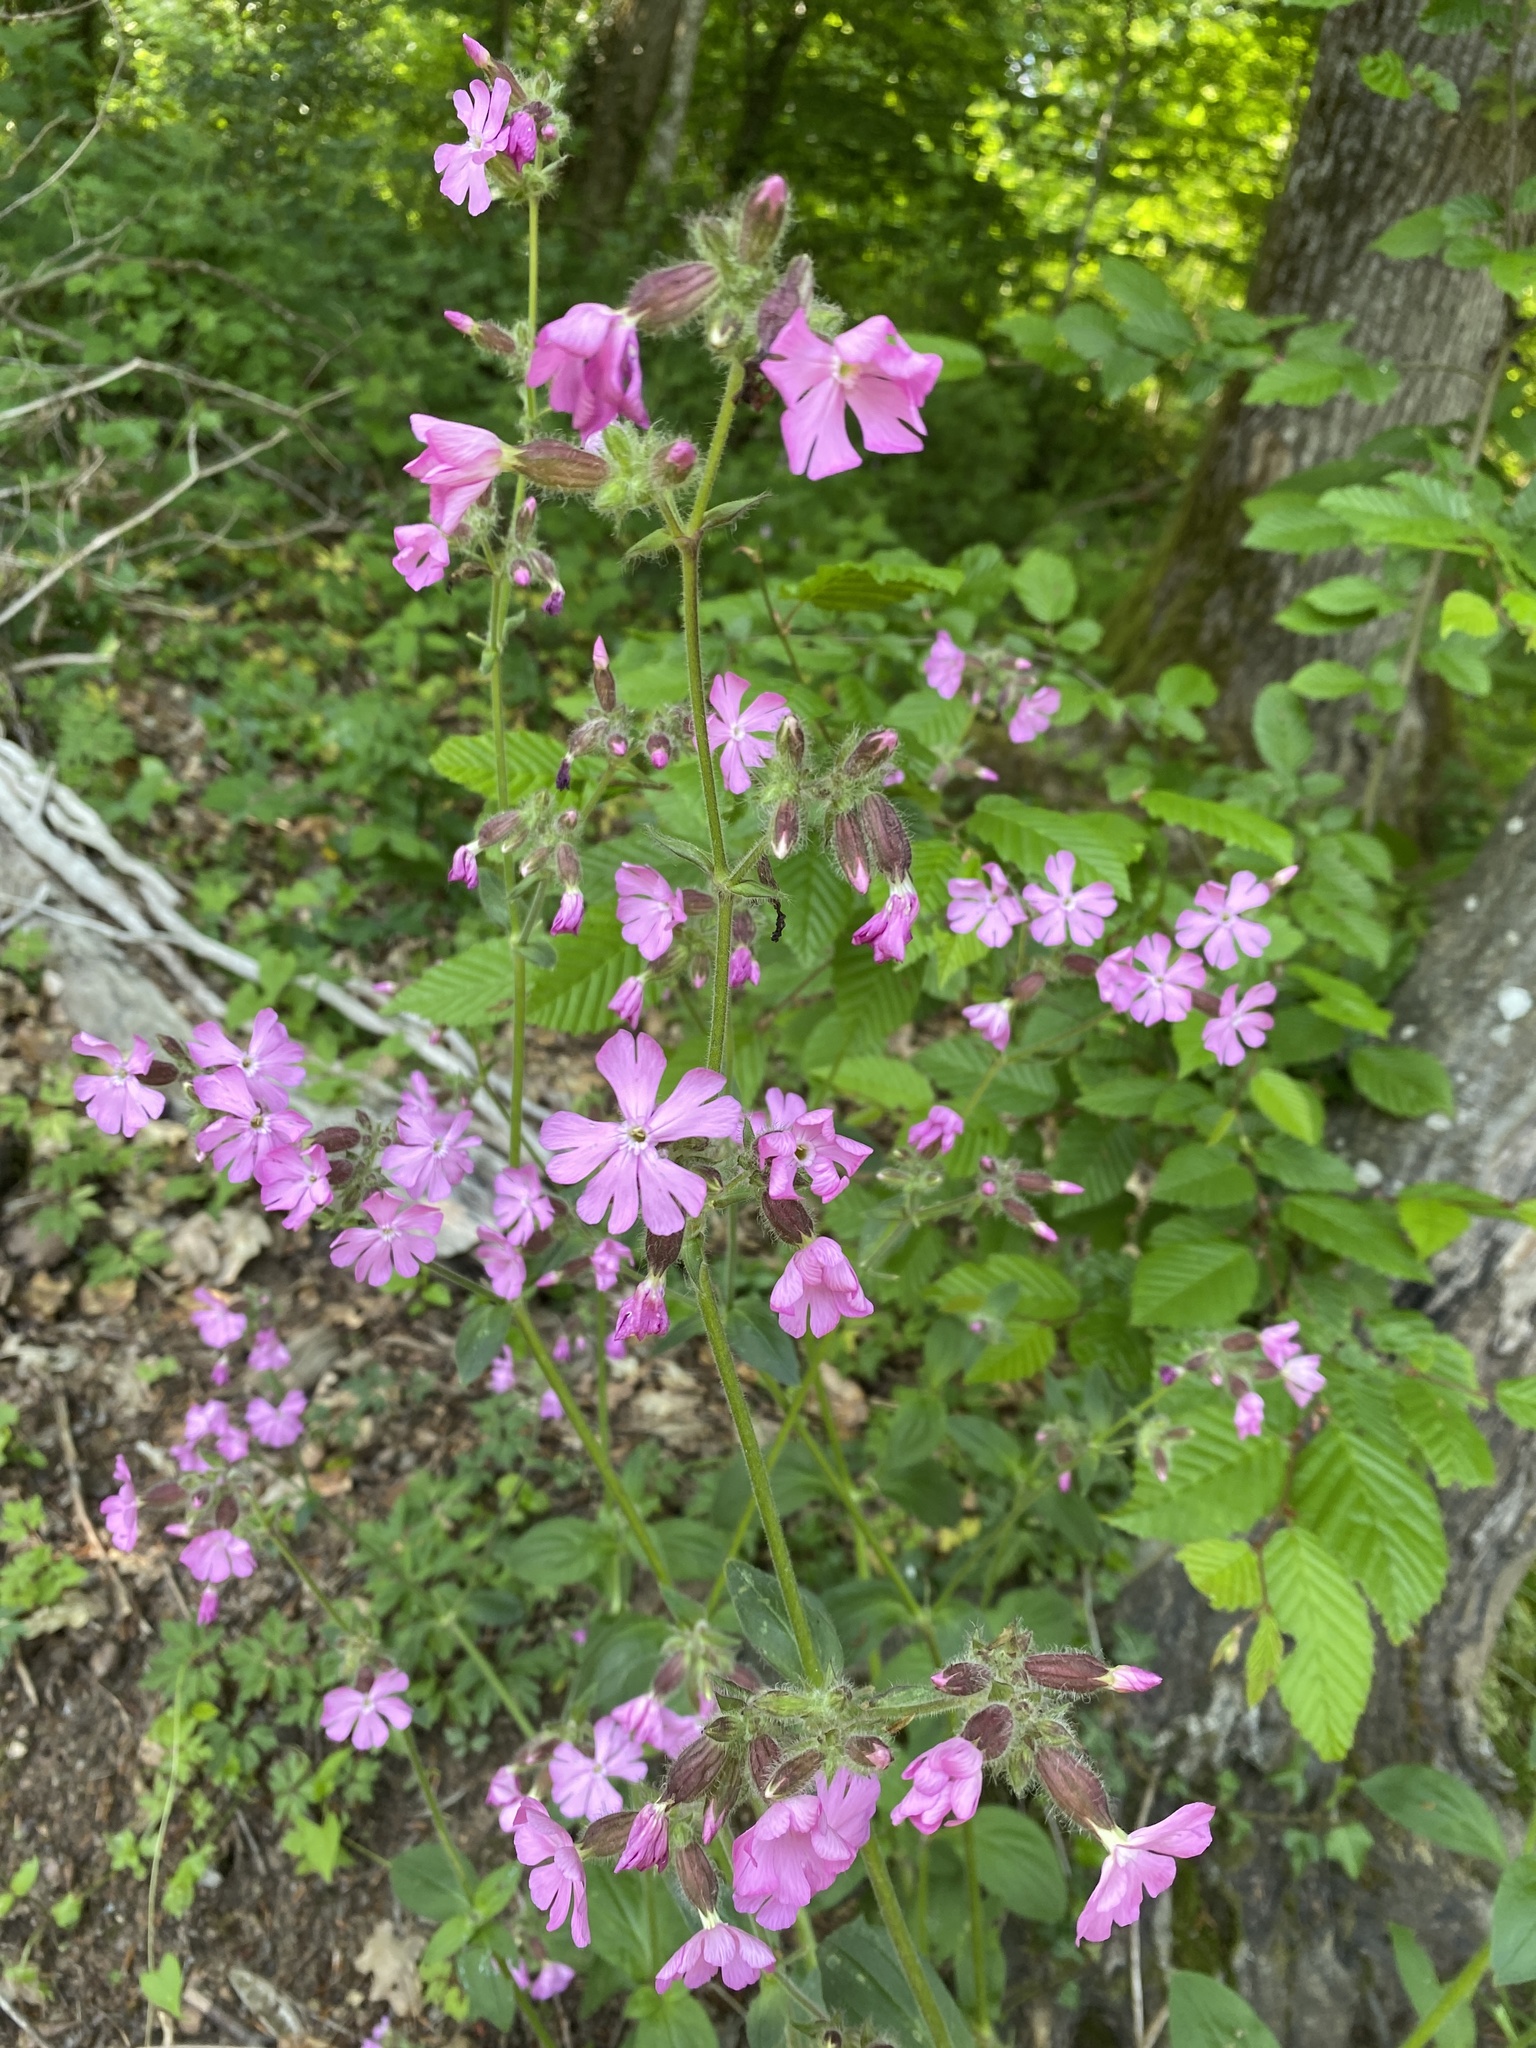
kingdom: Plantae
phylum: Tracheophyta
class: Magnoliopsida
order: Caryophyllales
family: Caryophyllaceae
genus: Silene
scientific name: Silene dioica
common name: Red campion
